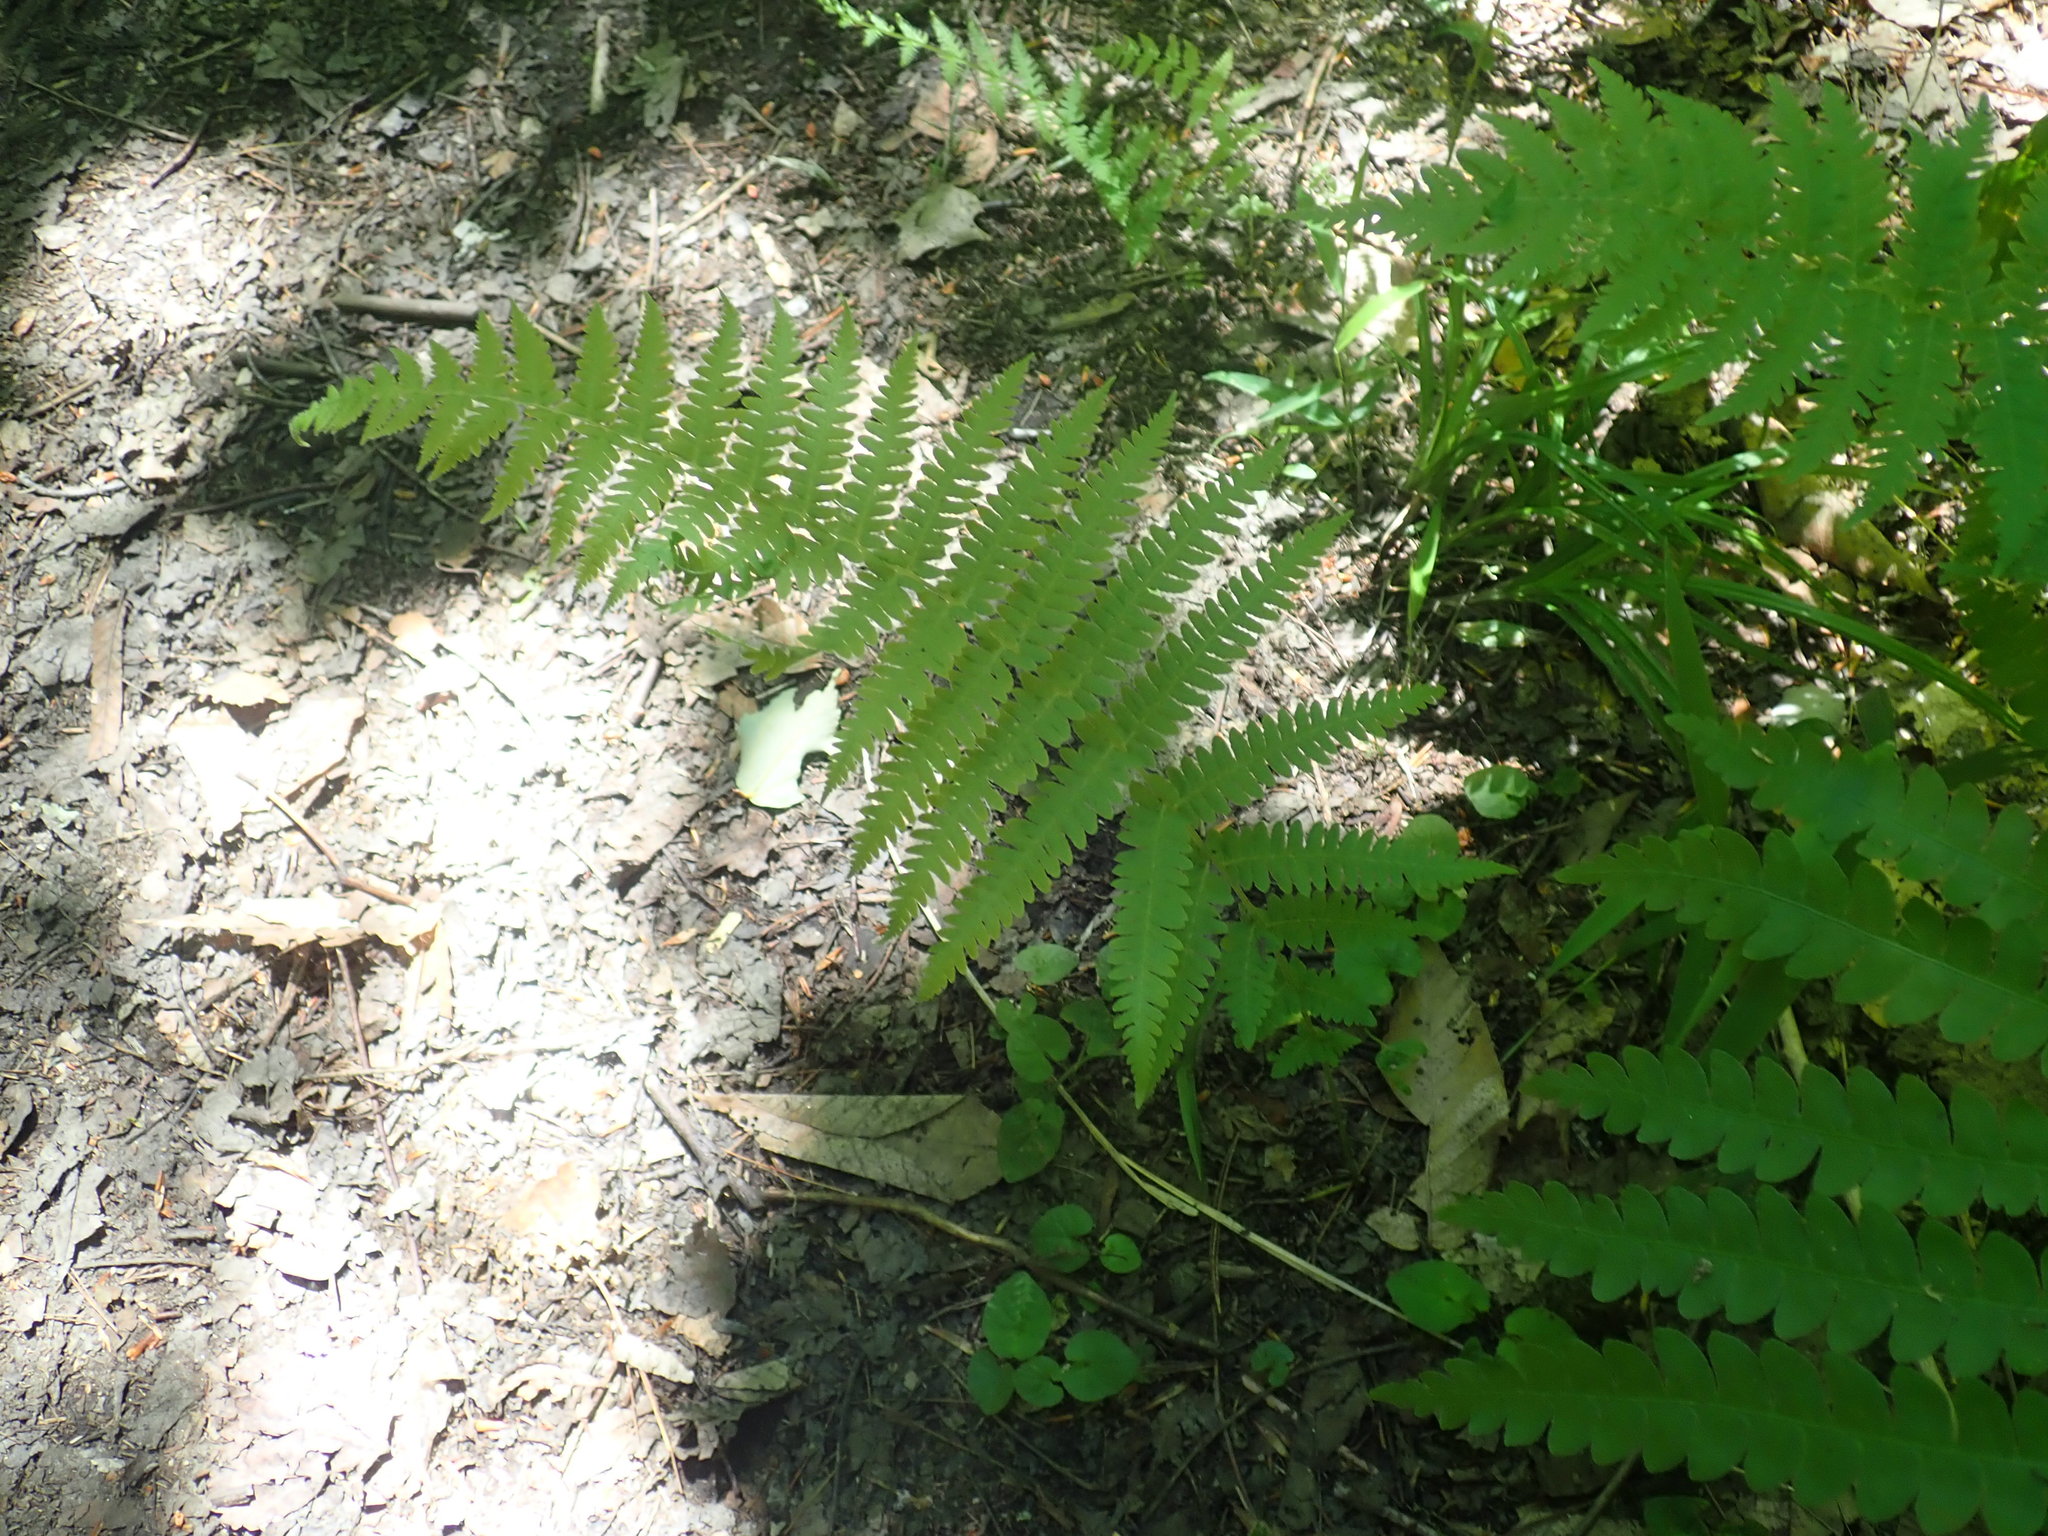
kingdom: Plantae
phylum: Tracheophyta
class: Polypodiopsida
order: Polypodiales
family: Thelypteridaceae
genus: Amauropelta
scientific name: Amauropelta noveboracensis
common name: New york fern
